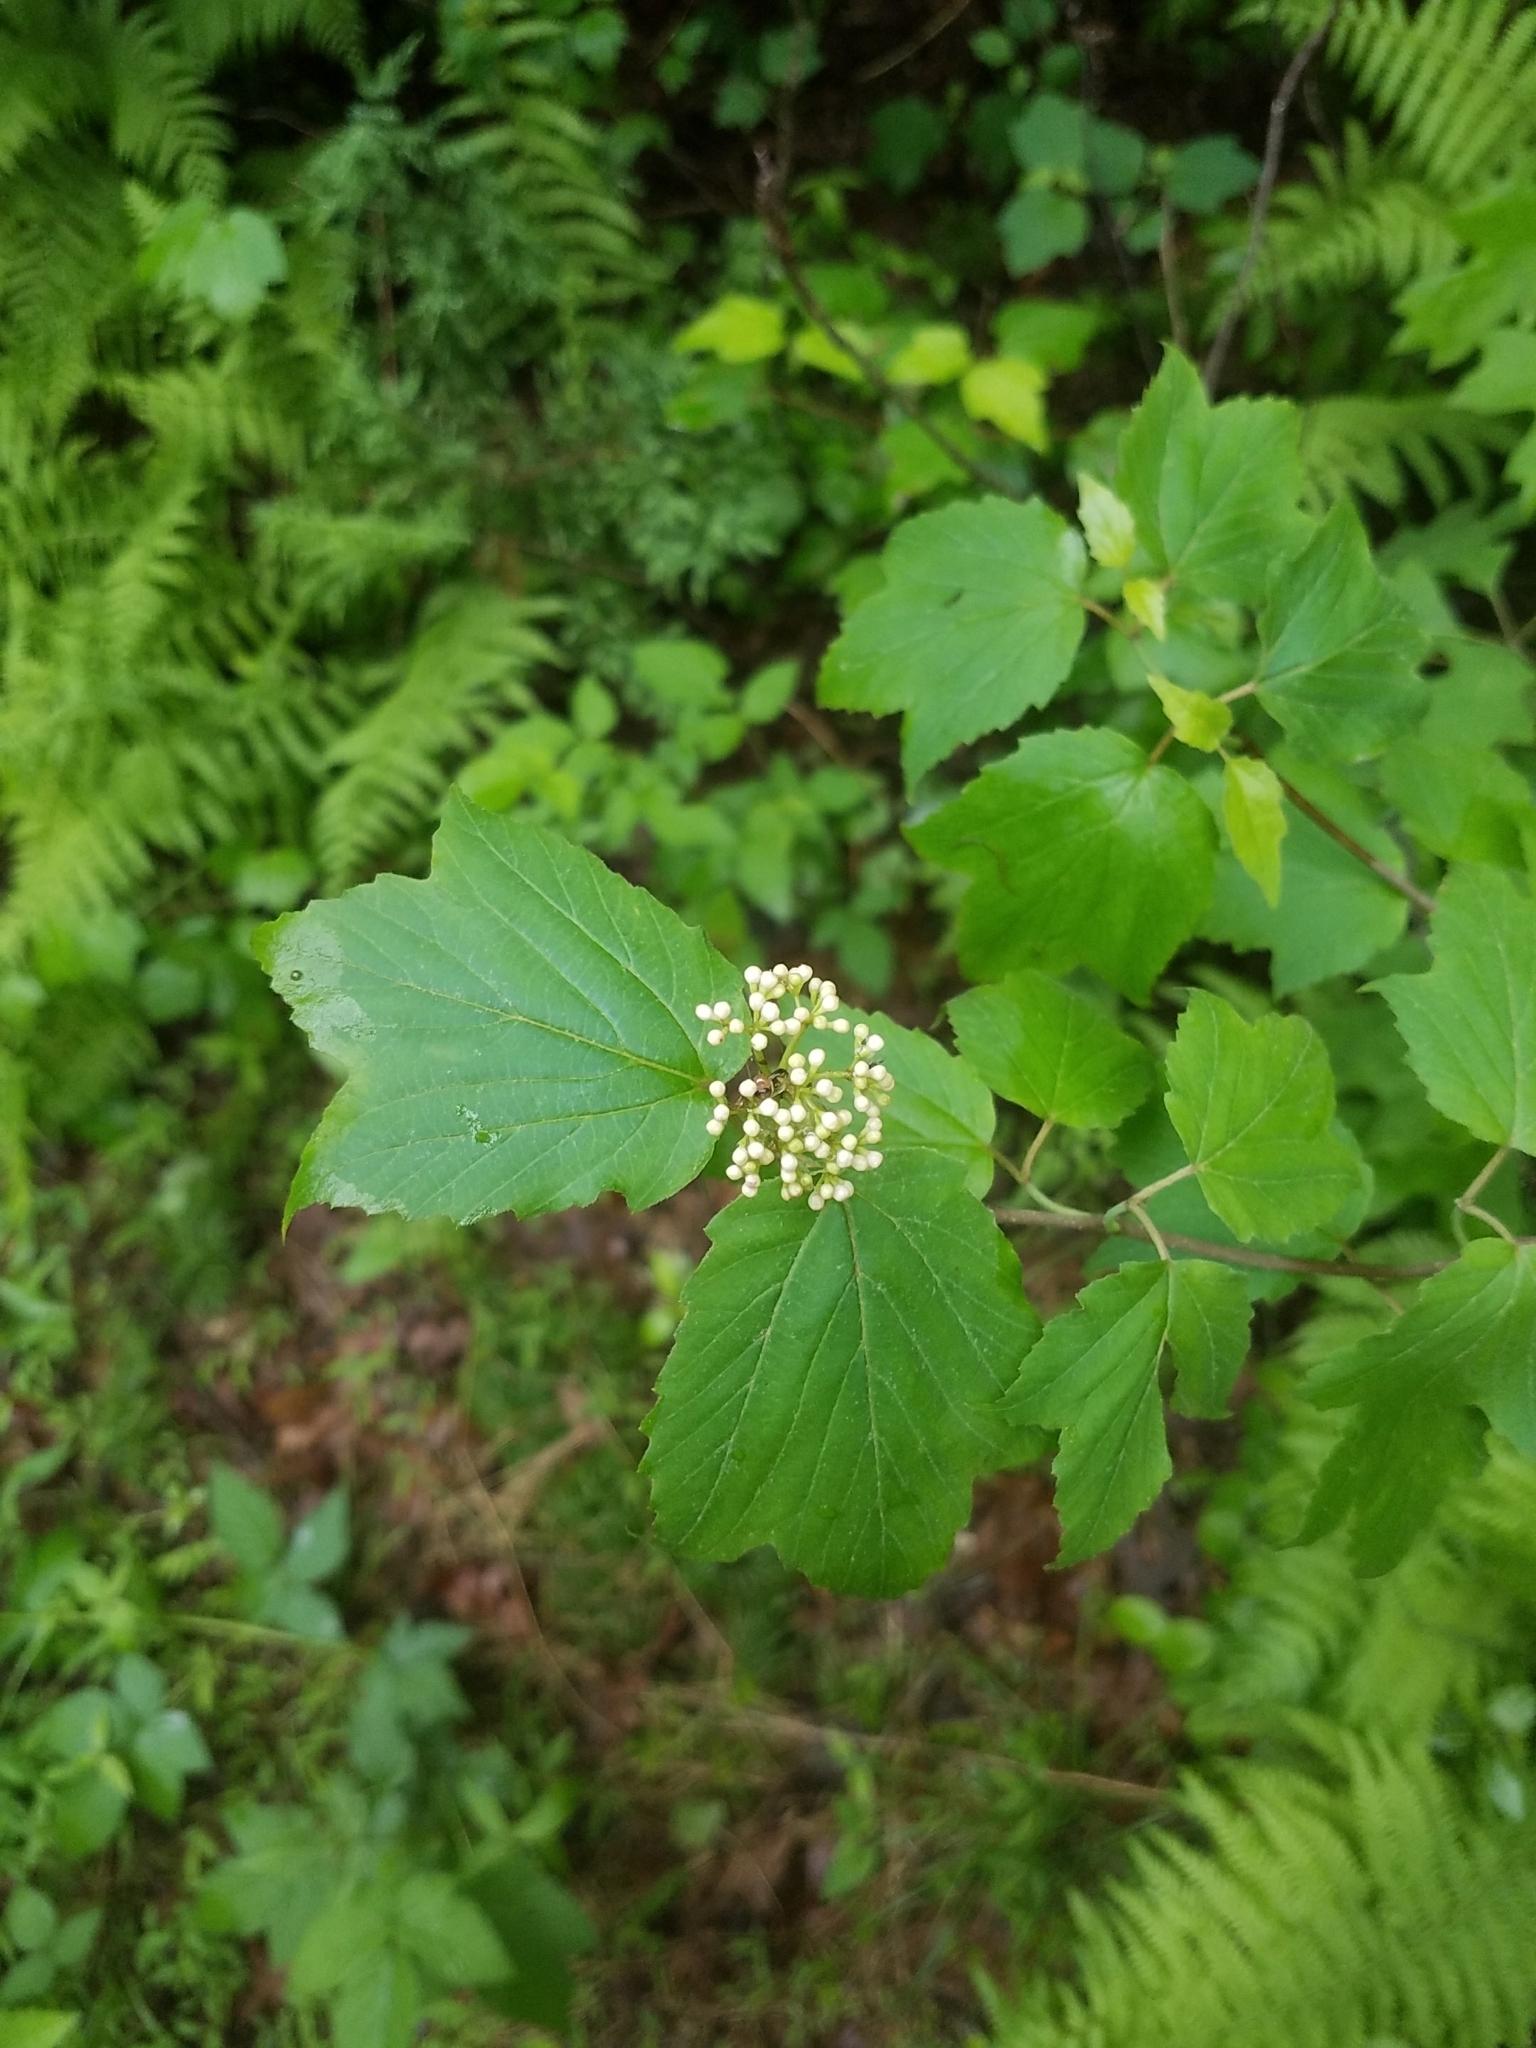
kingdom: Plantae
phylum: Tracheophyta
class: Magnoliopsida
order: Dipsacales
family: Viburnaceae
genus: Viburnum
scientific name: Viburnum acerifolium
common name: Dockmackie
